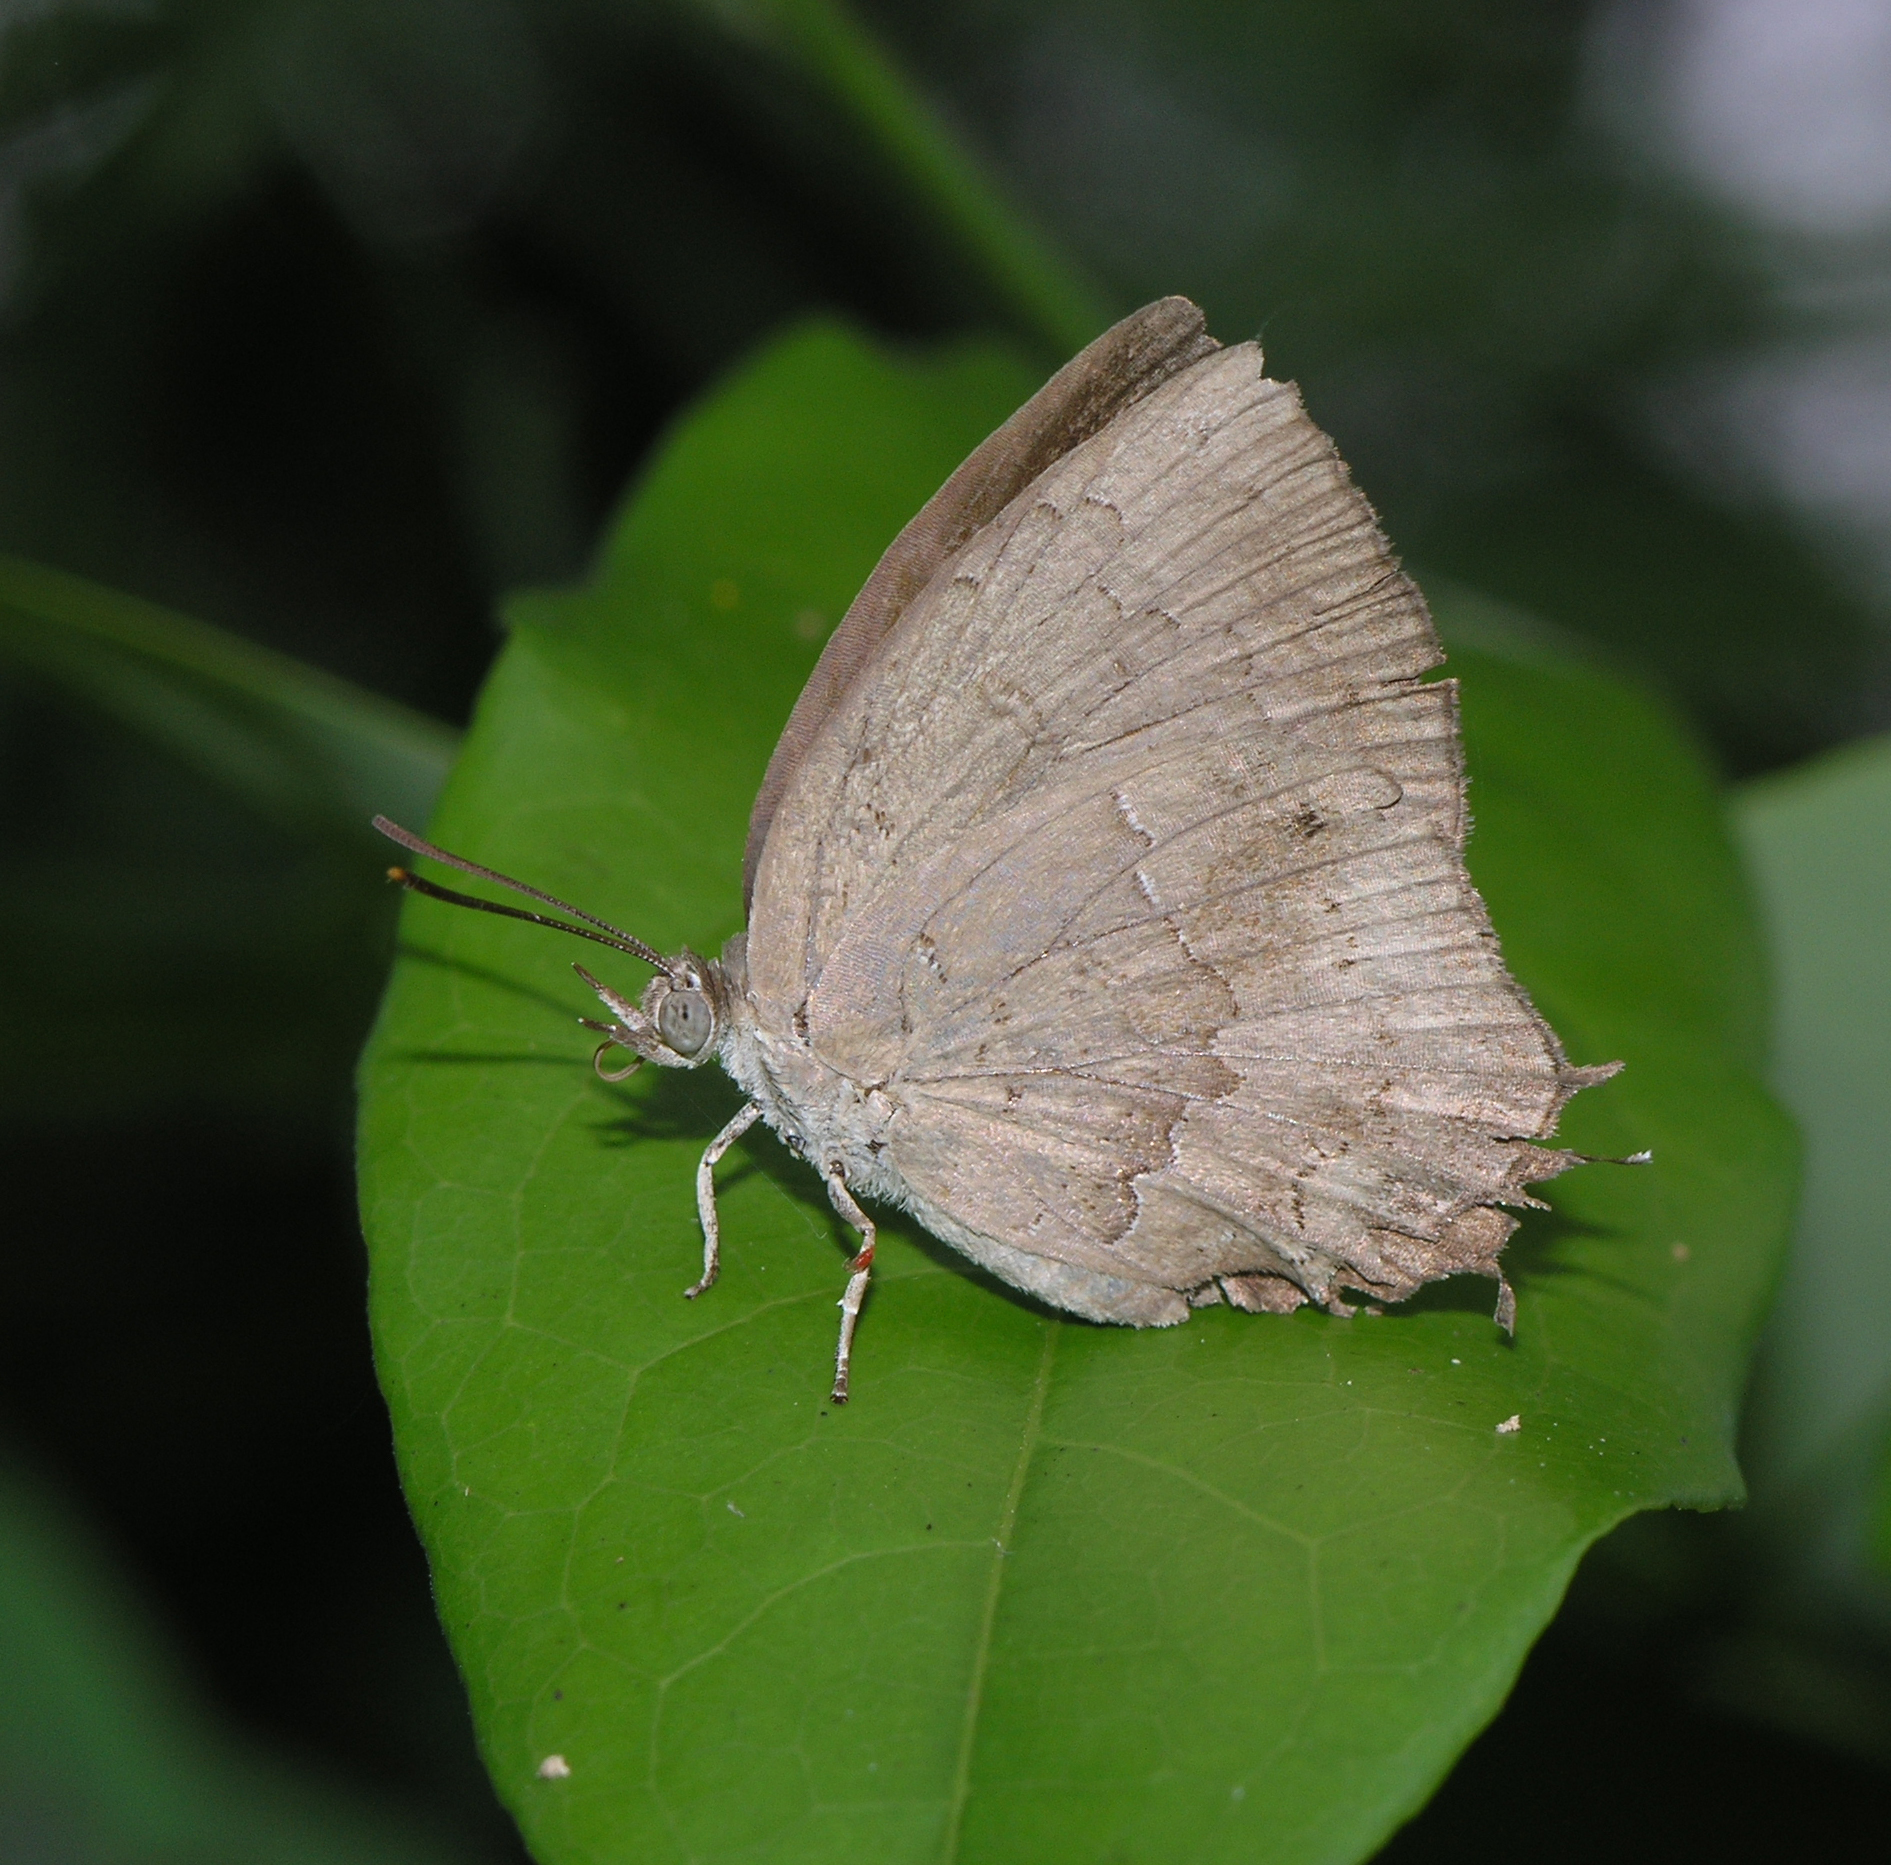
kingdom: Animalia
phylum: Arthropoda
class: Insecta
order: Lepidoptera
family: Lycaenidae
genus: Surendra
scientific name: Surendra quercetorum
